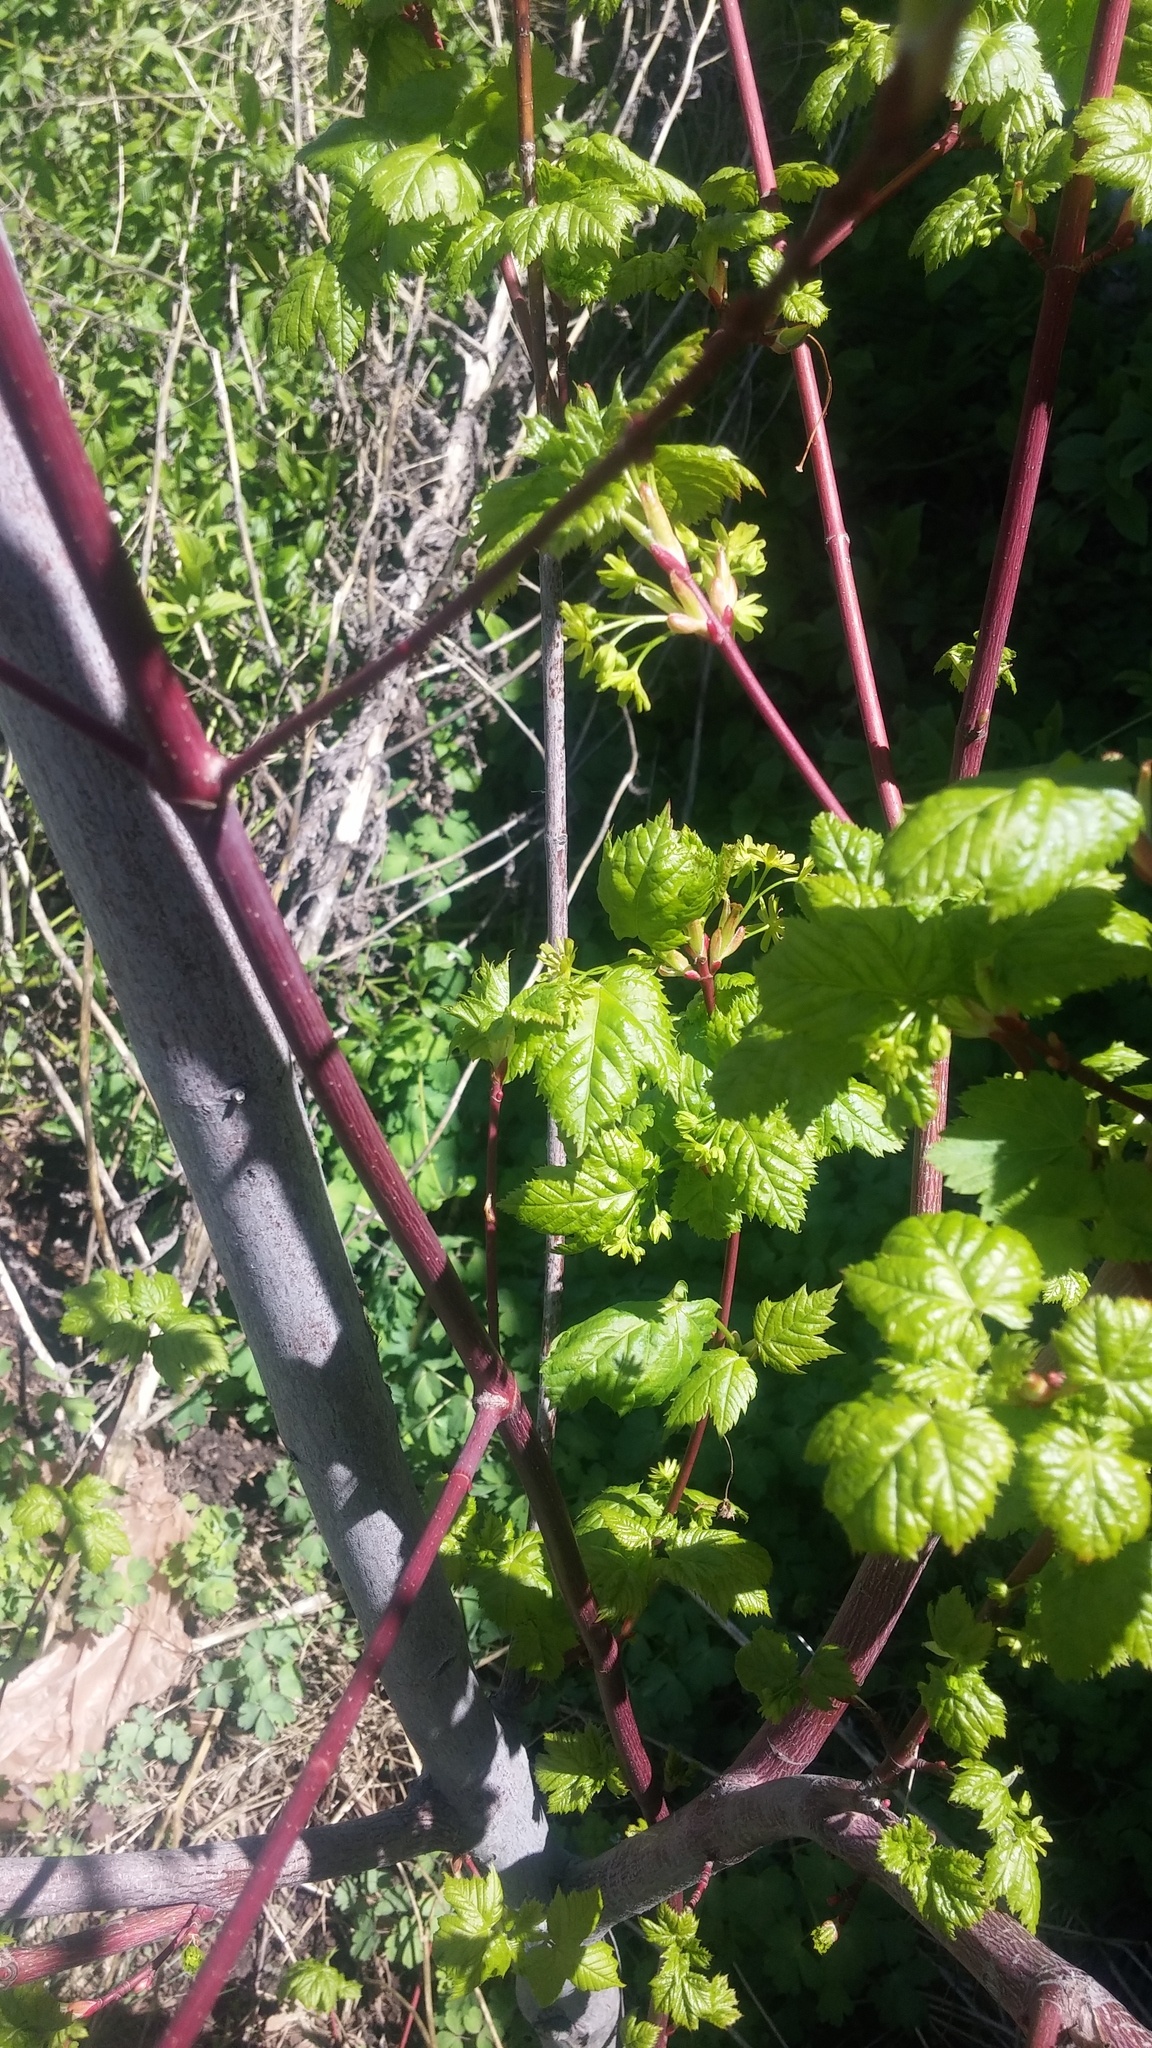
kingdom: Plantae
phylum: Tracheophyta
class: Magnoliopsida
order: Sapindales
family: Sapindaceae
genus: Acer
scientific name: Acer glabrum
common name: Rocky mountain maple
